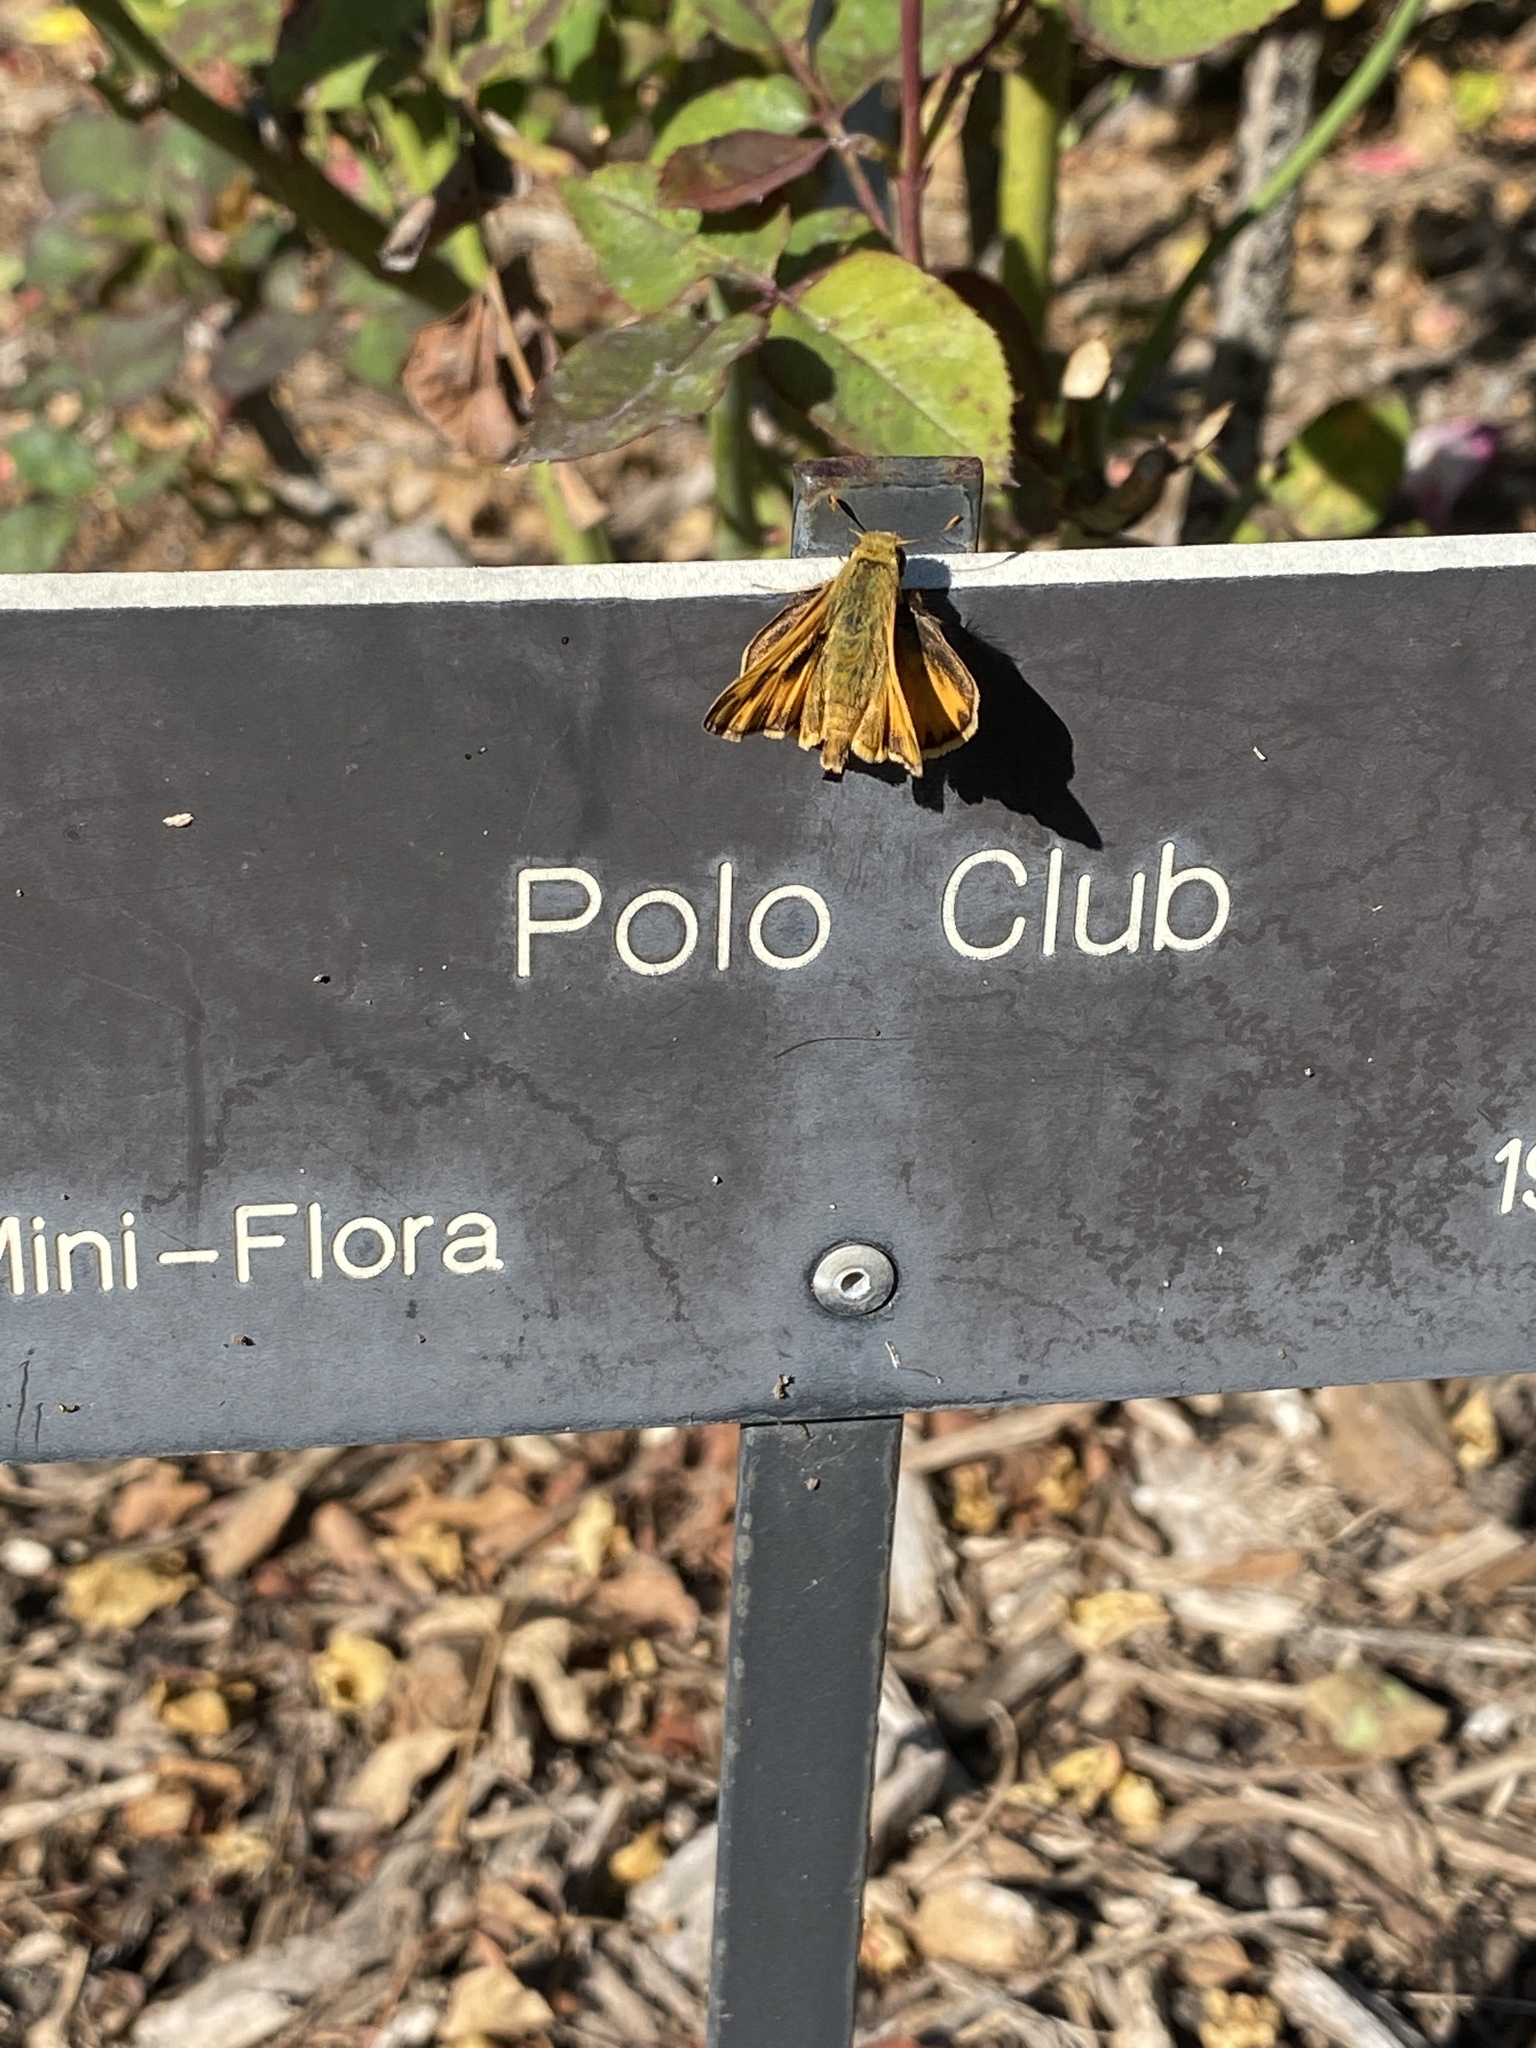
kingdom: Animalia
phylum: Arthropoda
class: Insecta
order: Lepidoptera
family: Hesperiidae
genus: Hylephila
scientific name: Hylephila phyleus
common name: Fiery skipper
